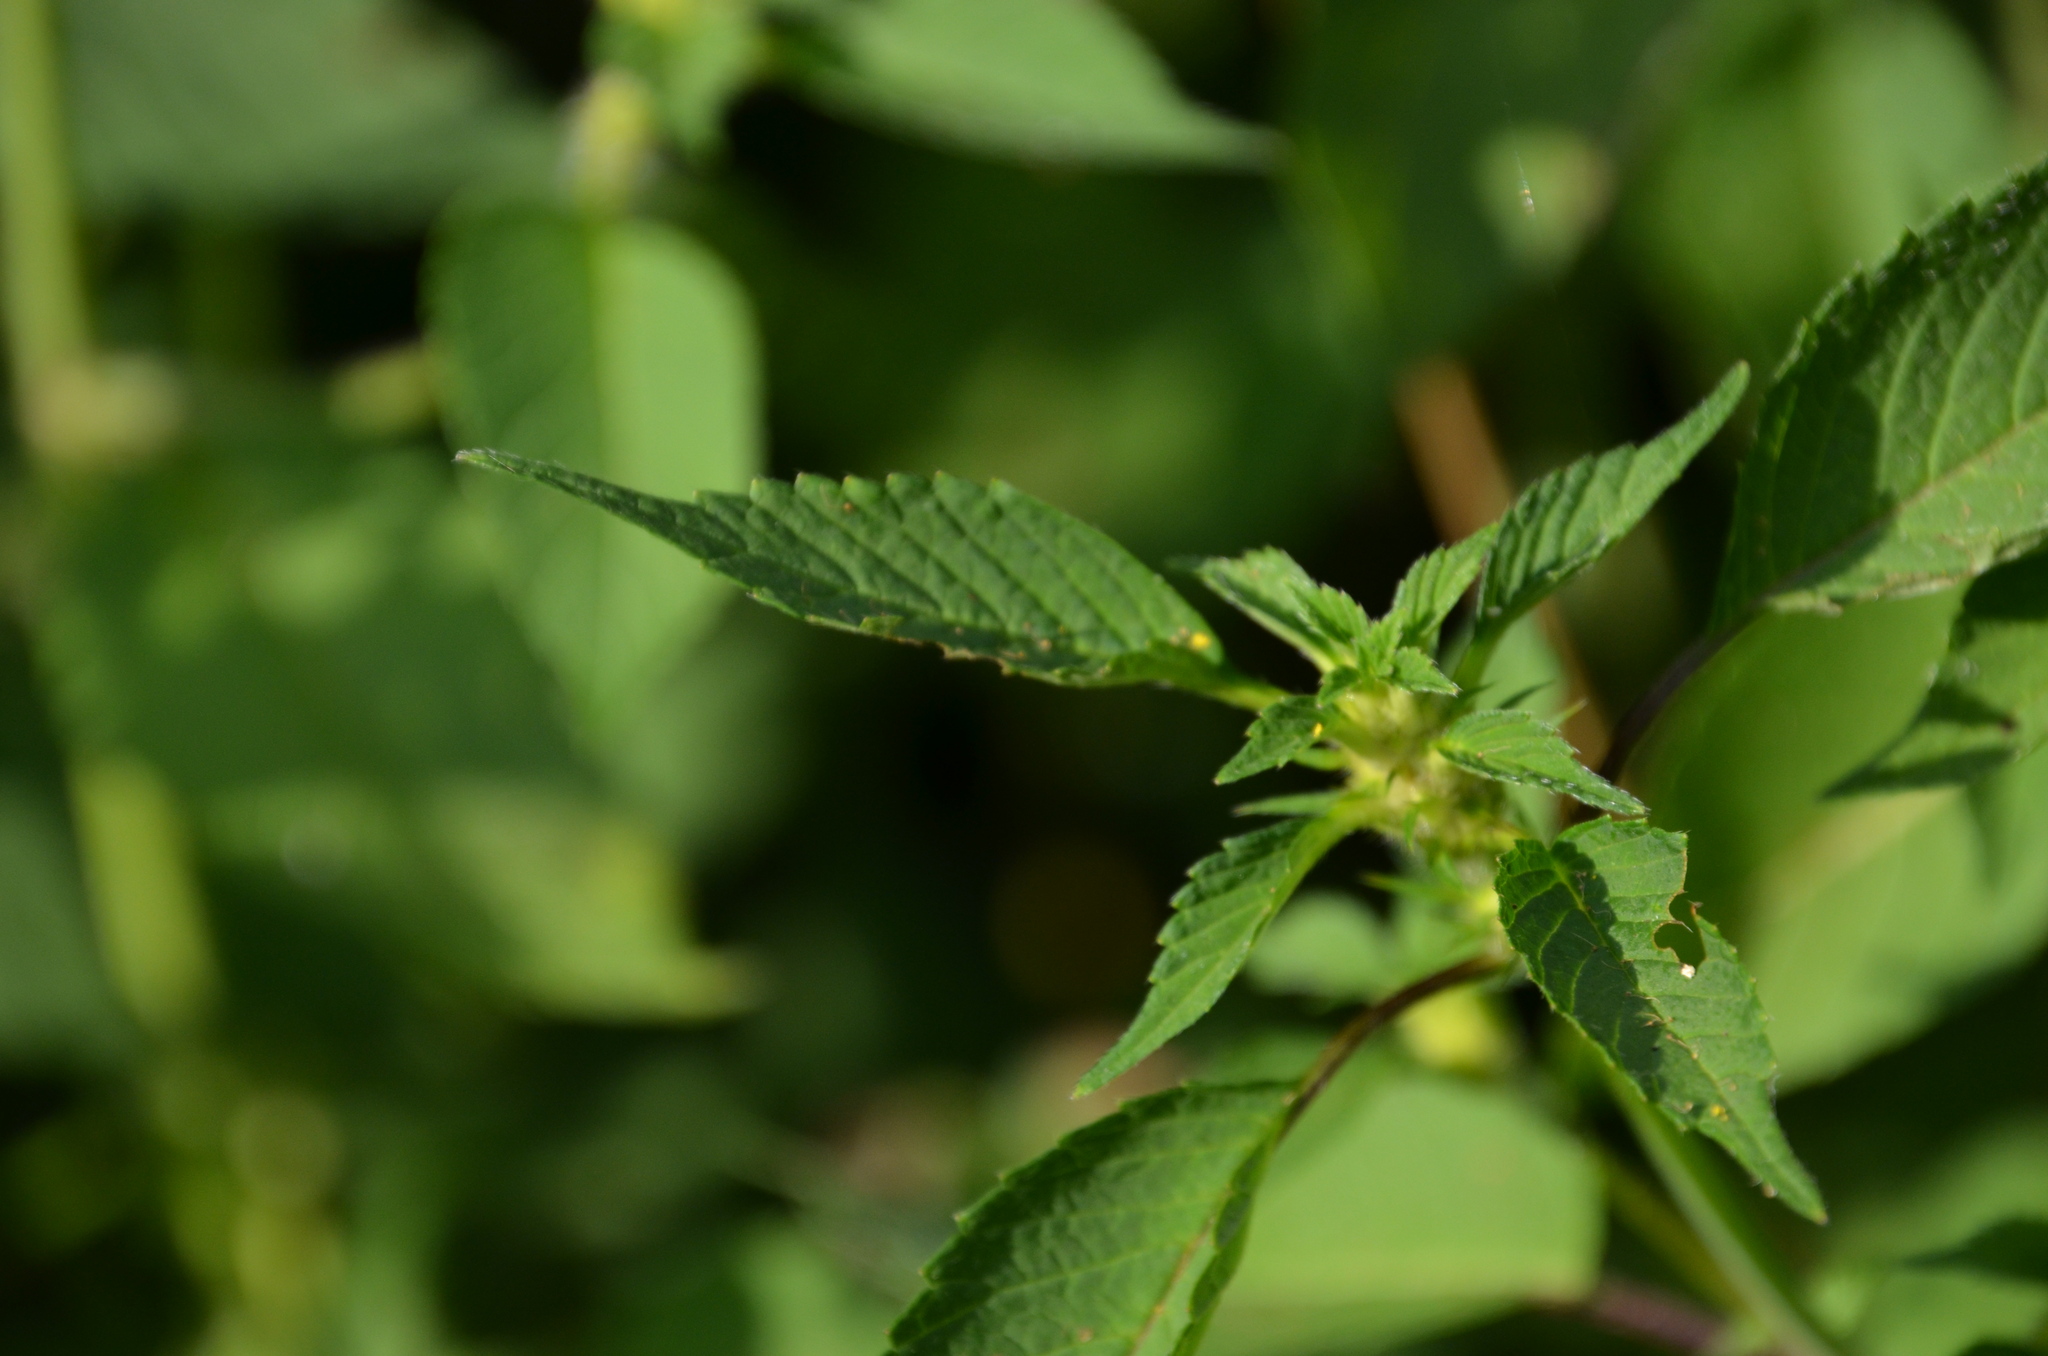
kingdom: Plantae
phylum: Tracheophyta
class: Magnoliopsida
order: Lamiales
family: Lamiaceae
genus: Galeopsis
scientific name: Galeopsis speciosa
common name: Large-flowered hemp-nettle
